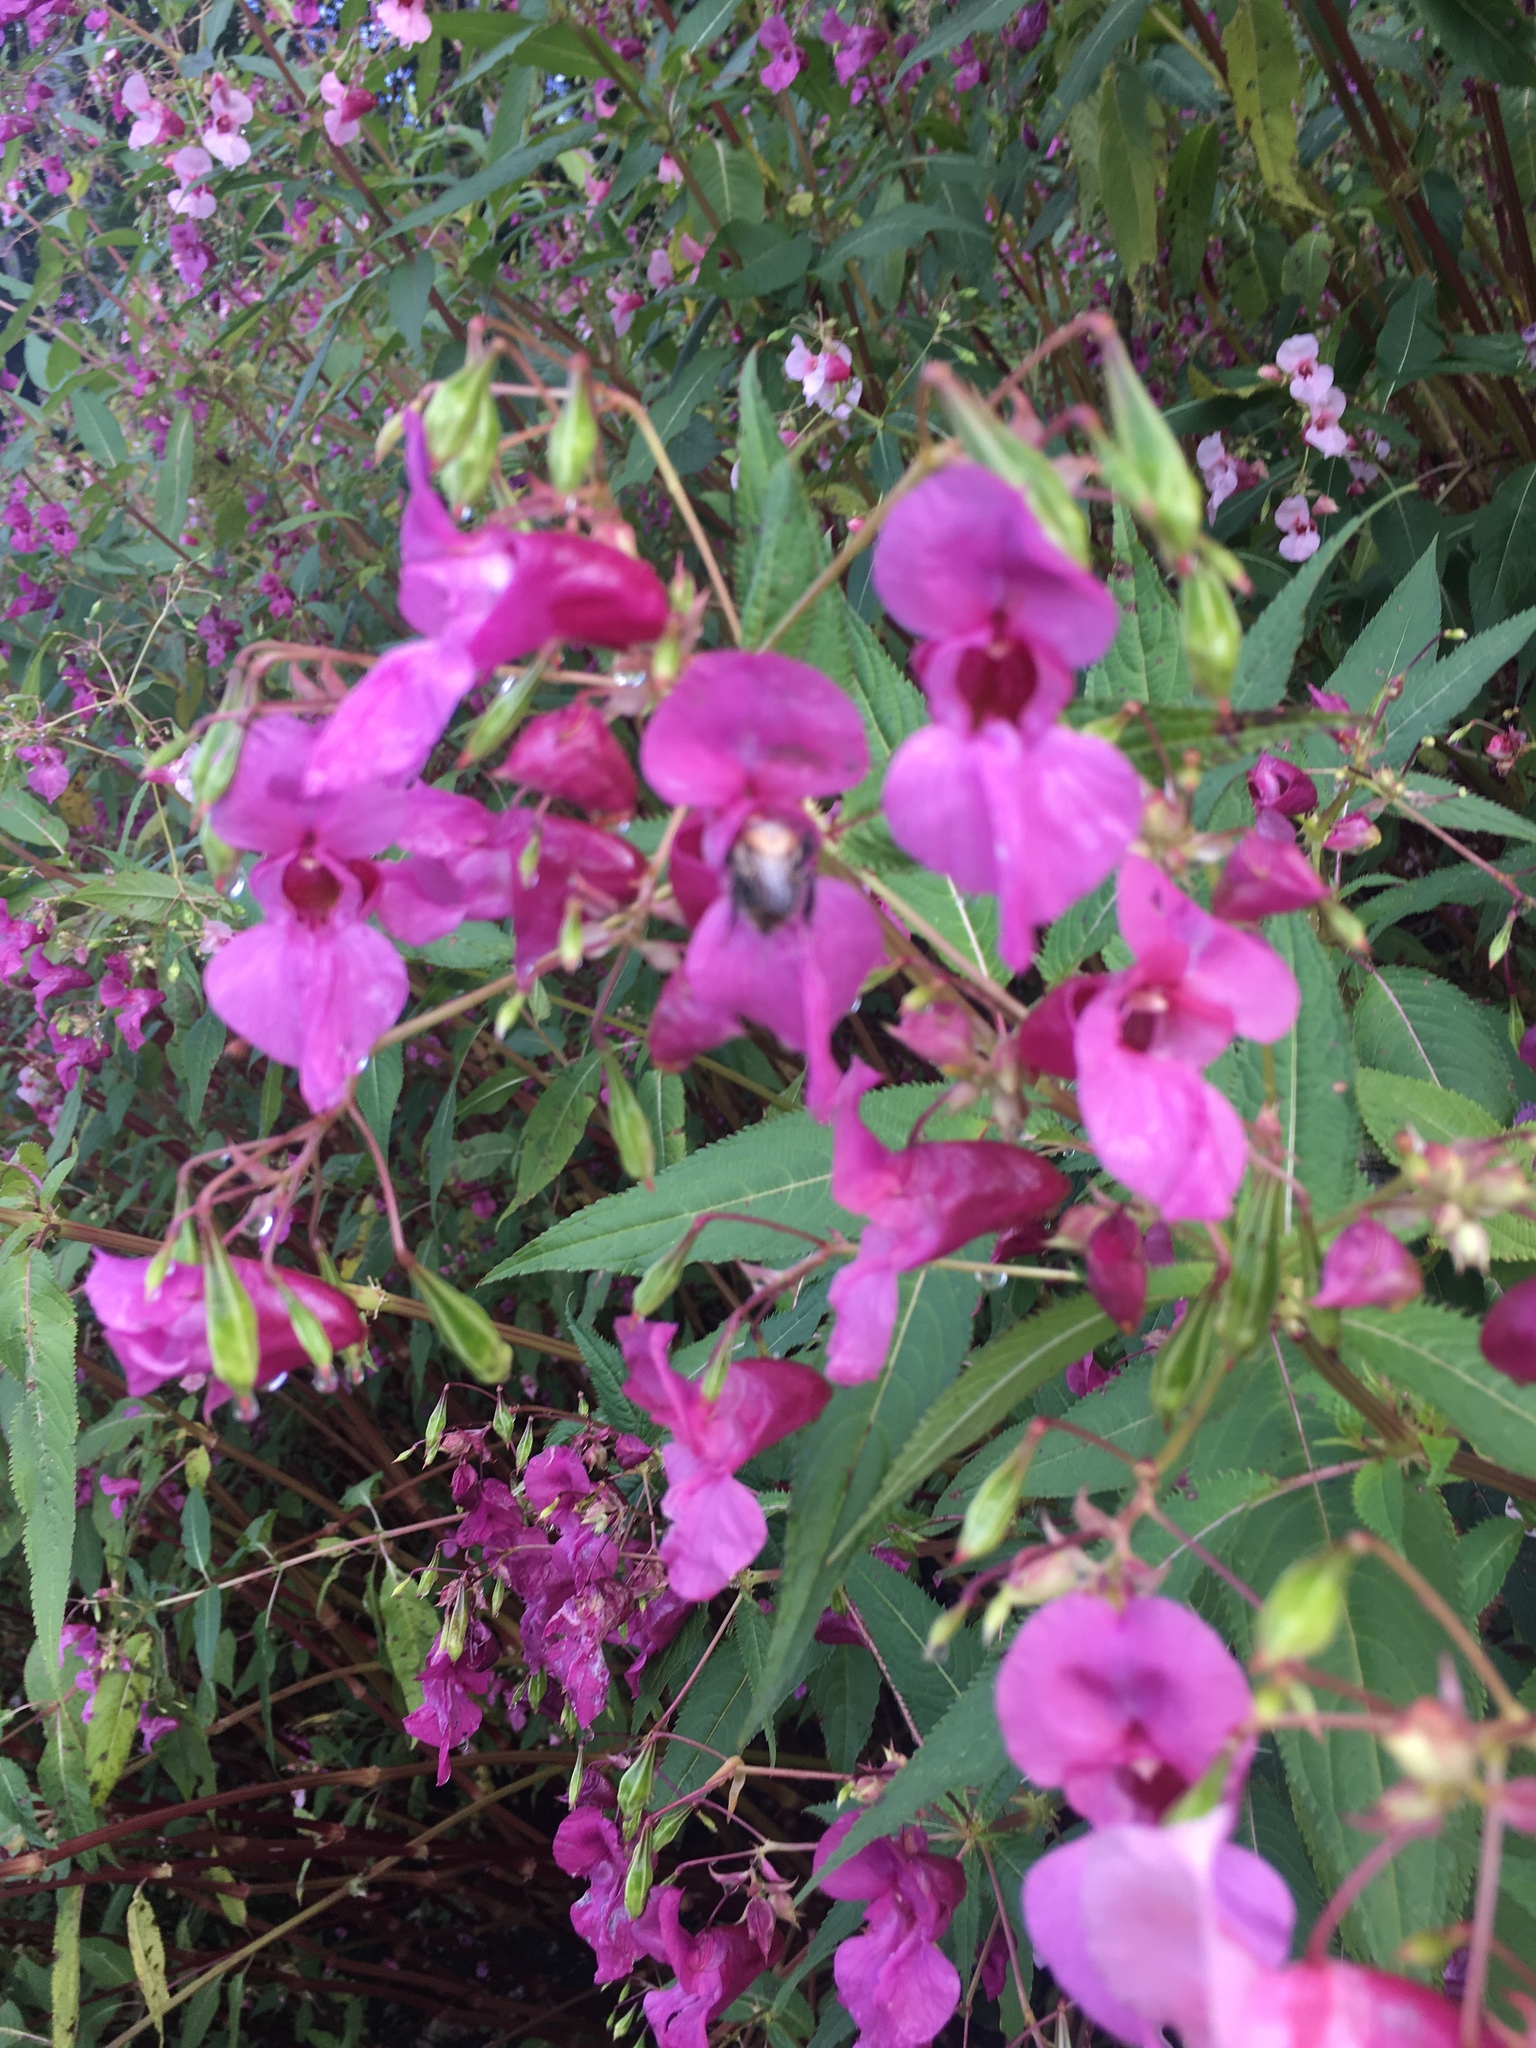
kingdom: Plantae
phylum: Tracheophyta
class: Magnoliopsida
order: Ericales
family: Balsaminaceae
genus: Impatiens
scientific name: Impatiens glandulifera
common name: Himalayan balsam
